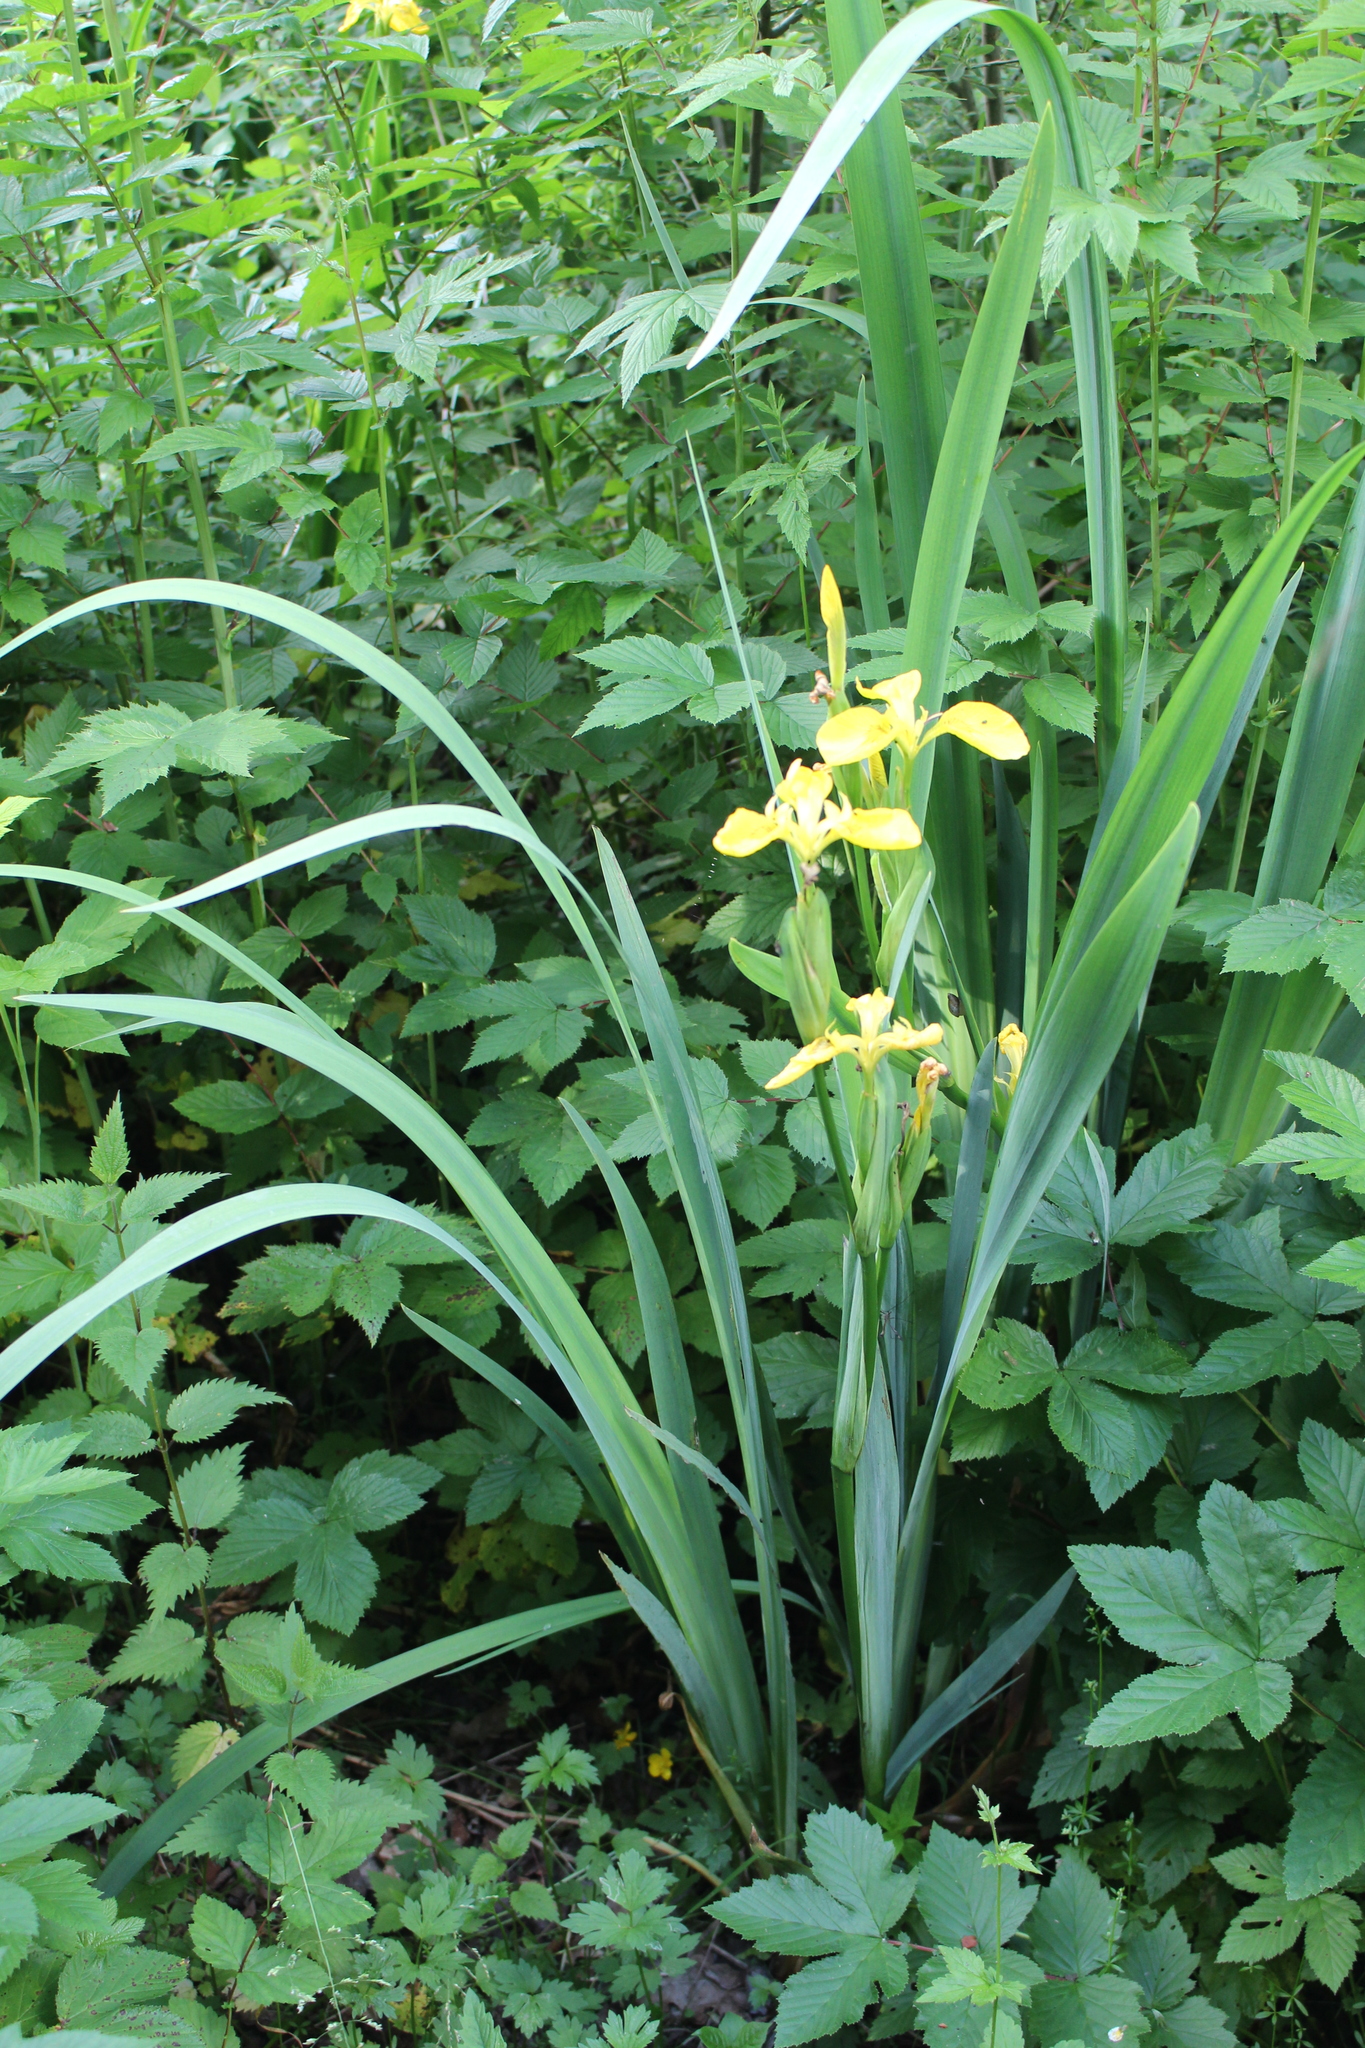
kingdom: Plantae
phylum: Tracheophyta
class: Liliopsida
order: Asparagales
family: Iridaceae
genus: Iris
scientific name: Iris pseudacorus
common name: Yellow flag
